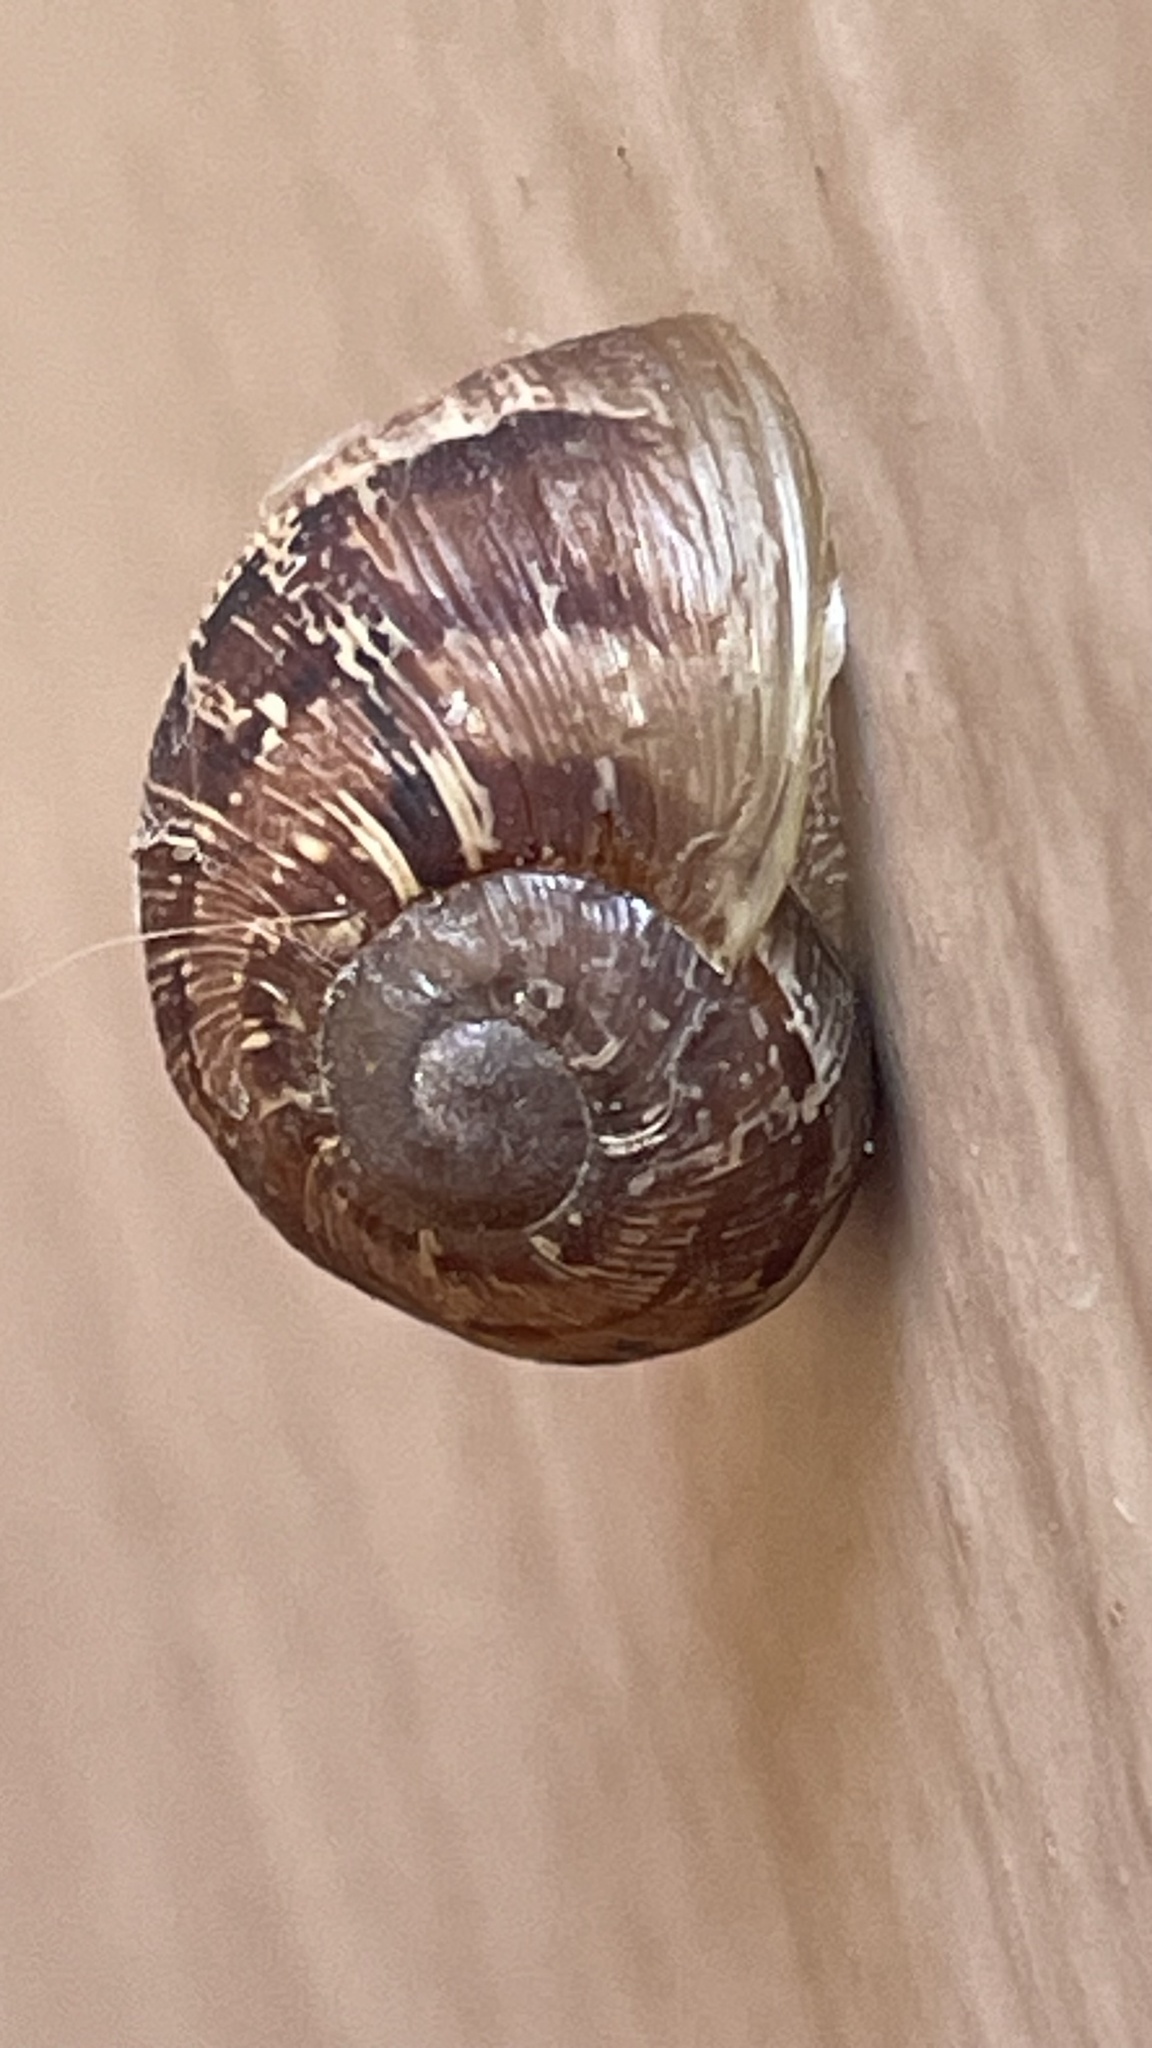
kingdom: Animalia
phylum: Mollusca
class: Gastropoda
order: Stylommatophora
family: Helicidae
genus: Cornu
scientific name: Cornu aspersum
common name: Brown garden snail
